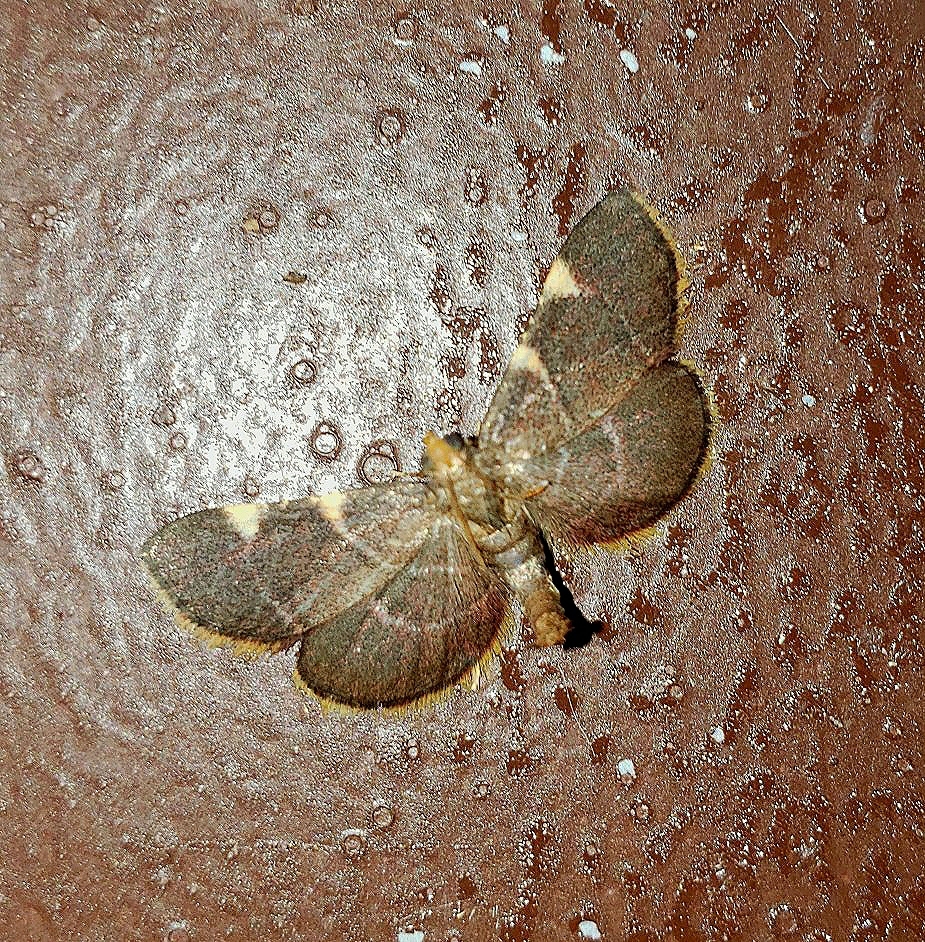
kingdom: Animalia
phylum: Arthropoda
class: Insecta
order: Lepidoptera
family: Pyralidae
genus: Hypsopygia
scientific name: Hypsopygia olinalis
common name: Yellow-fringed dolichomia moth
